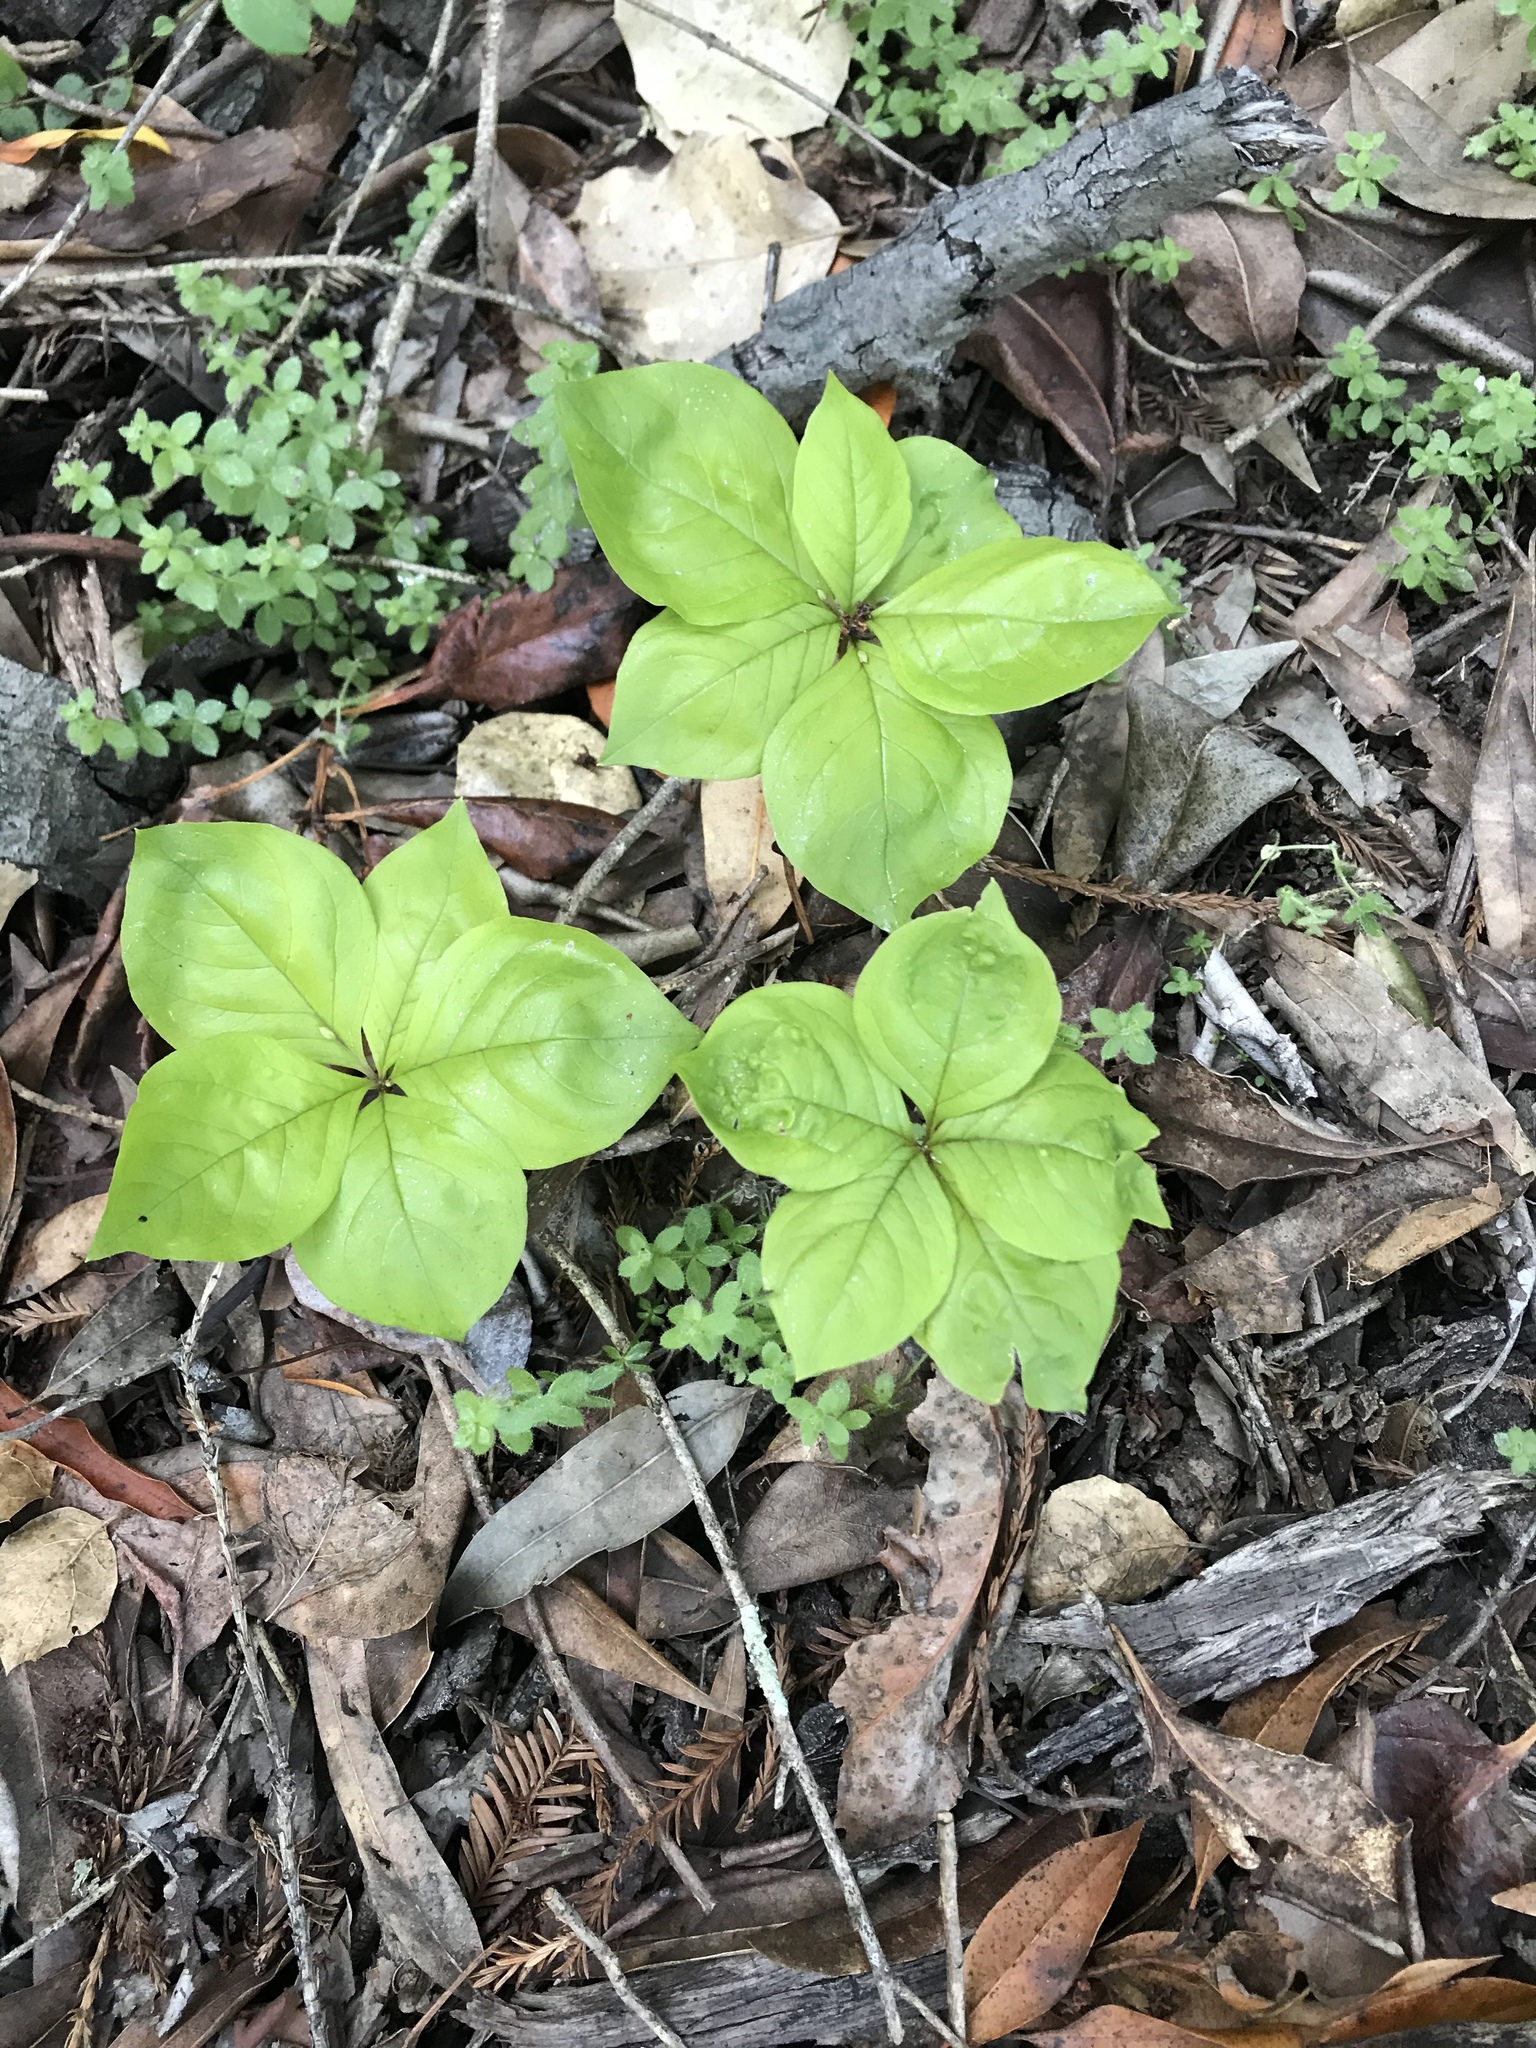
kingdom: Plantae
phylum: Tracheophyta
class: Magnoliopsida
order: Ericales
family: Primulaceae
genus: Lysimachia
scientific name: Lysimachia latifolia
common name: Pacific starflower
